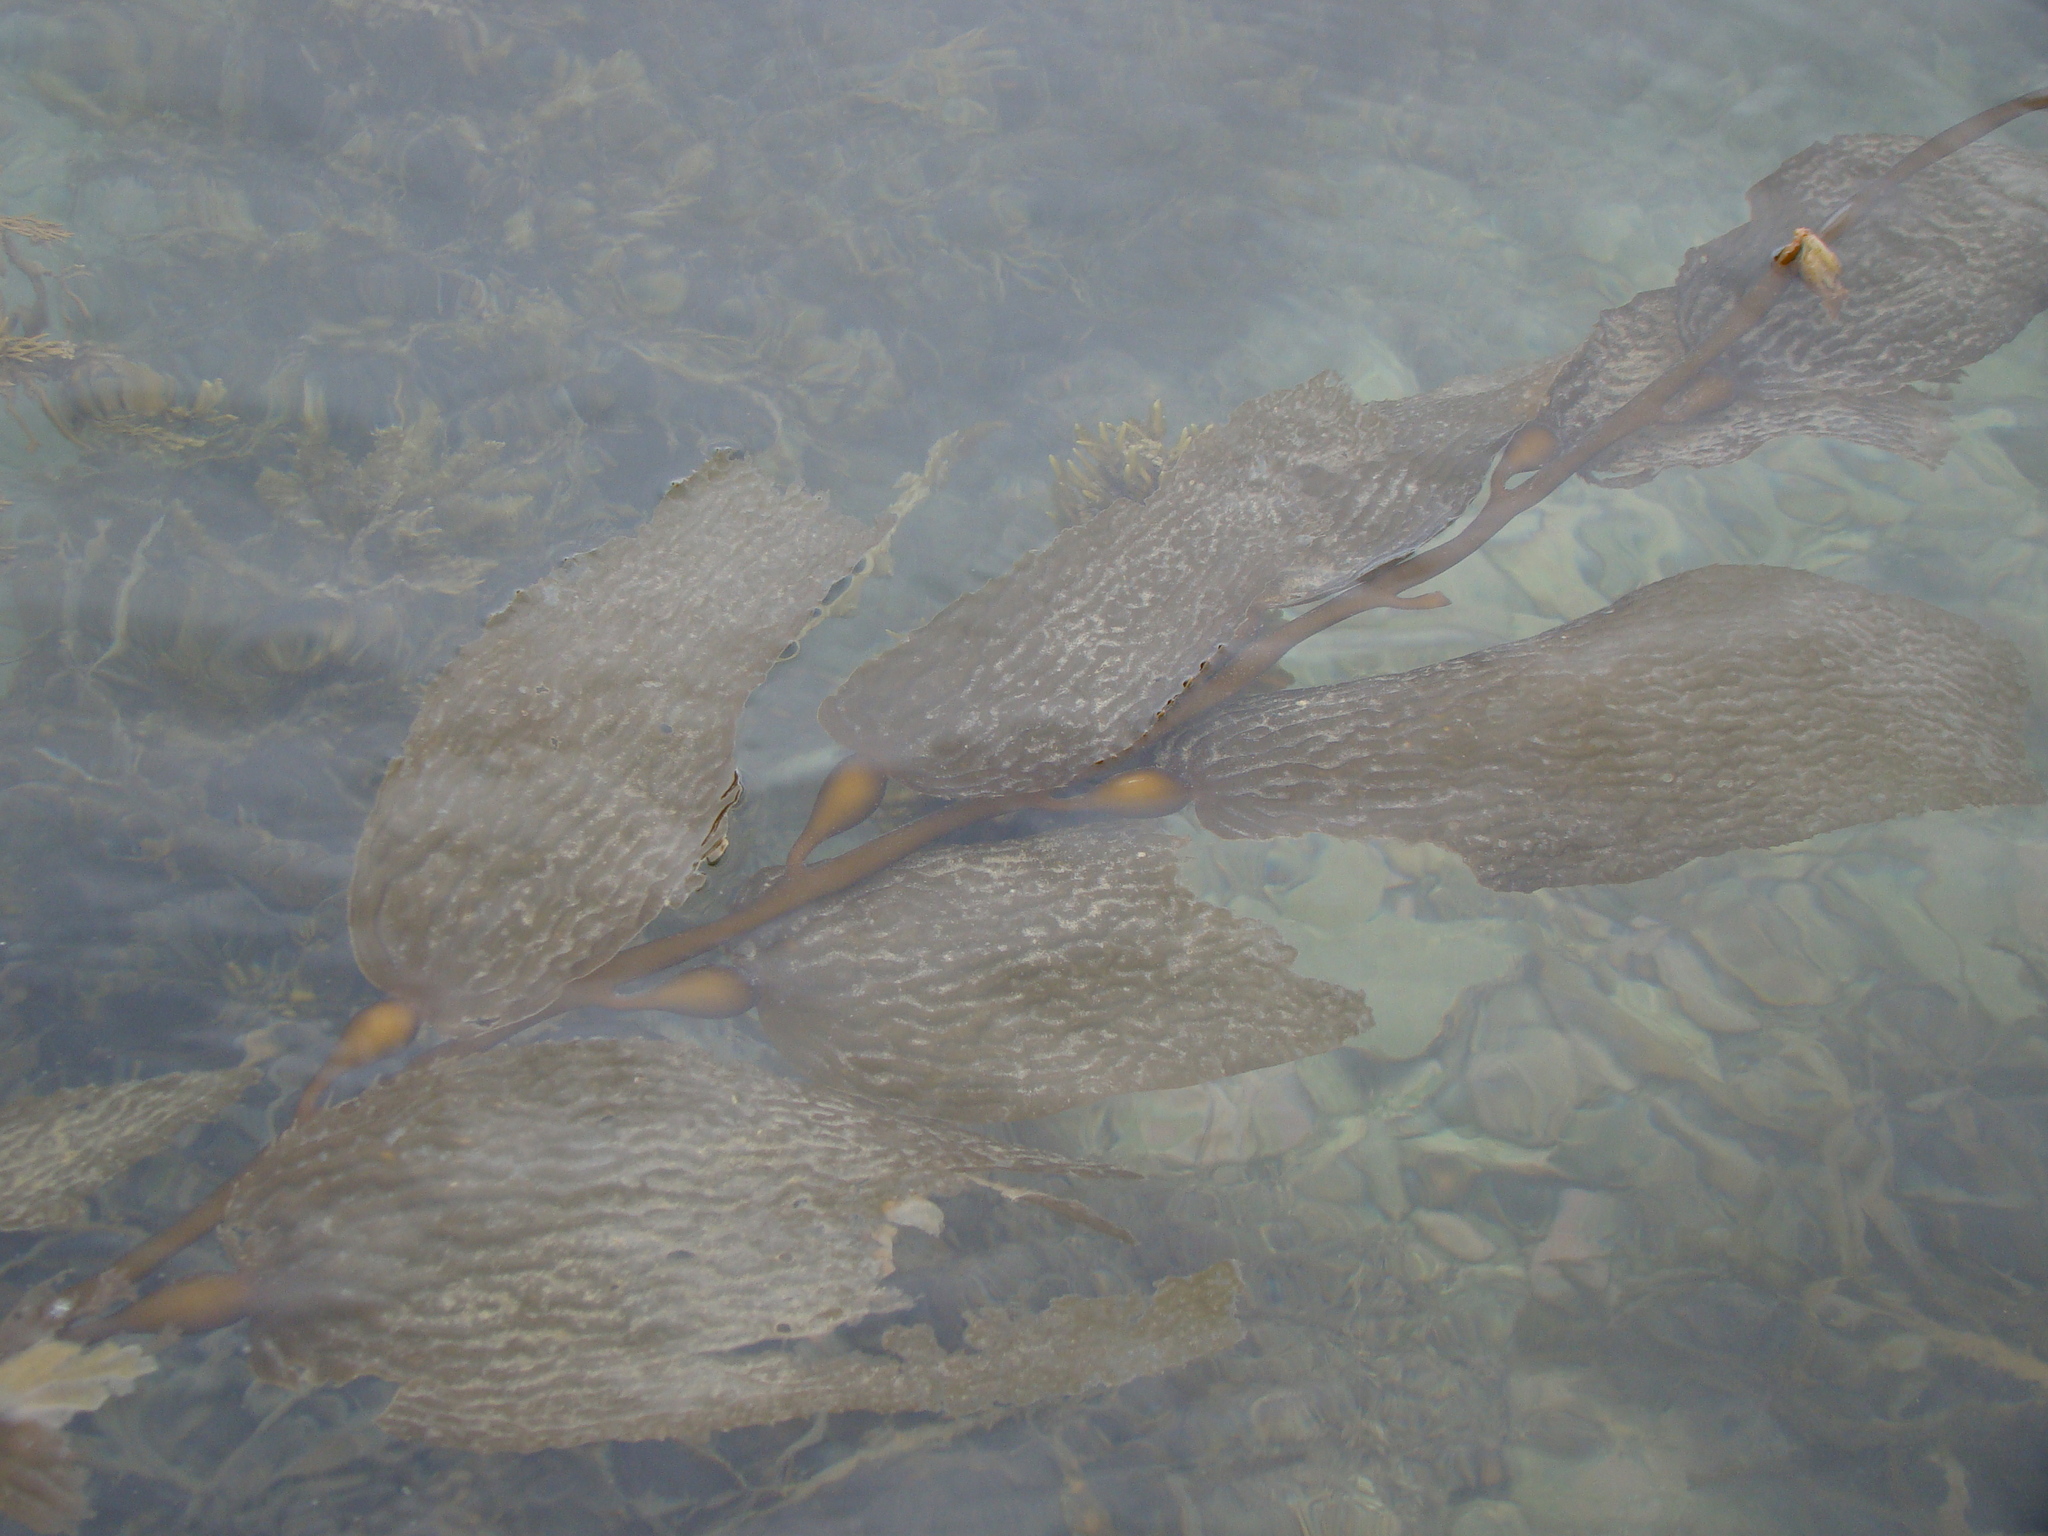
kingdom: Chromista
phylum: Ochrophyta
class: Phaeophyceae
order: Laminariales
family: Laminariaceae
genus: Macrocystis
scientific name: Macrocystis pyrifera
